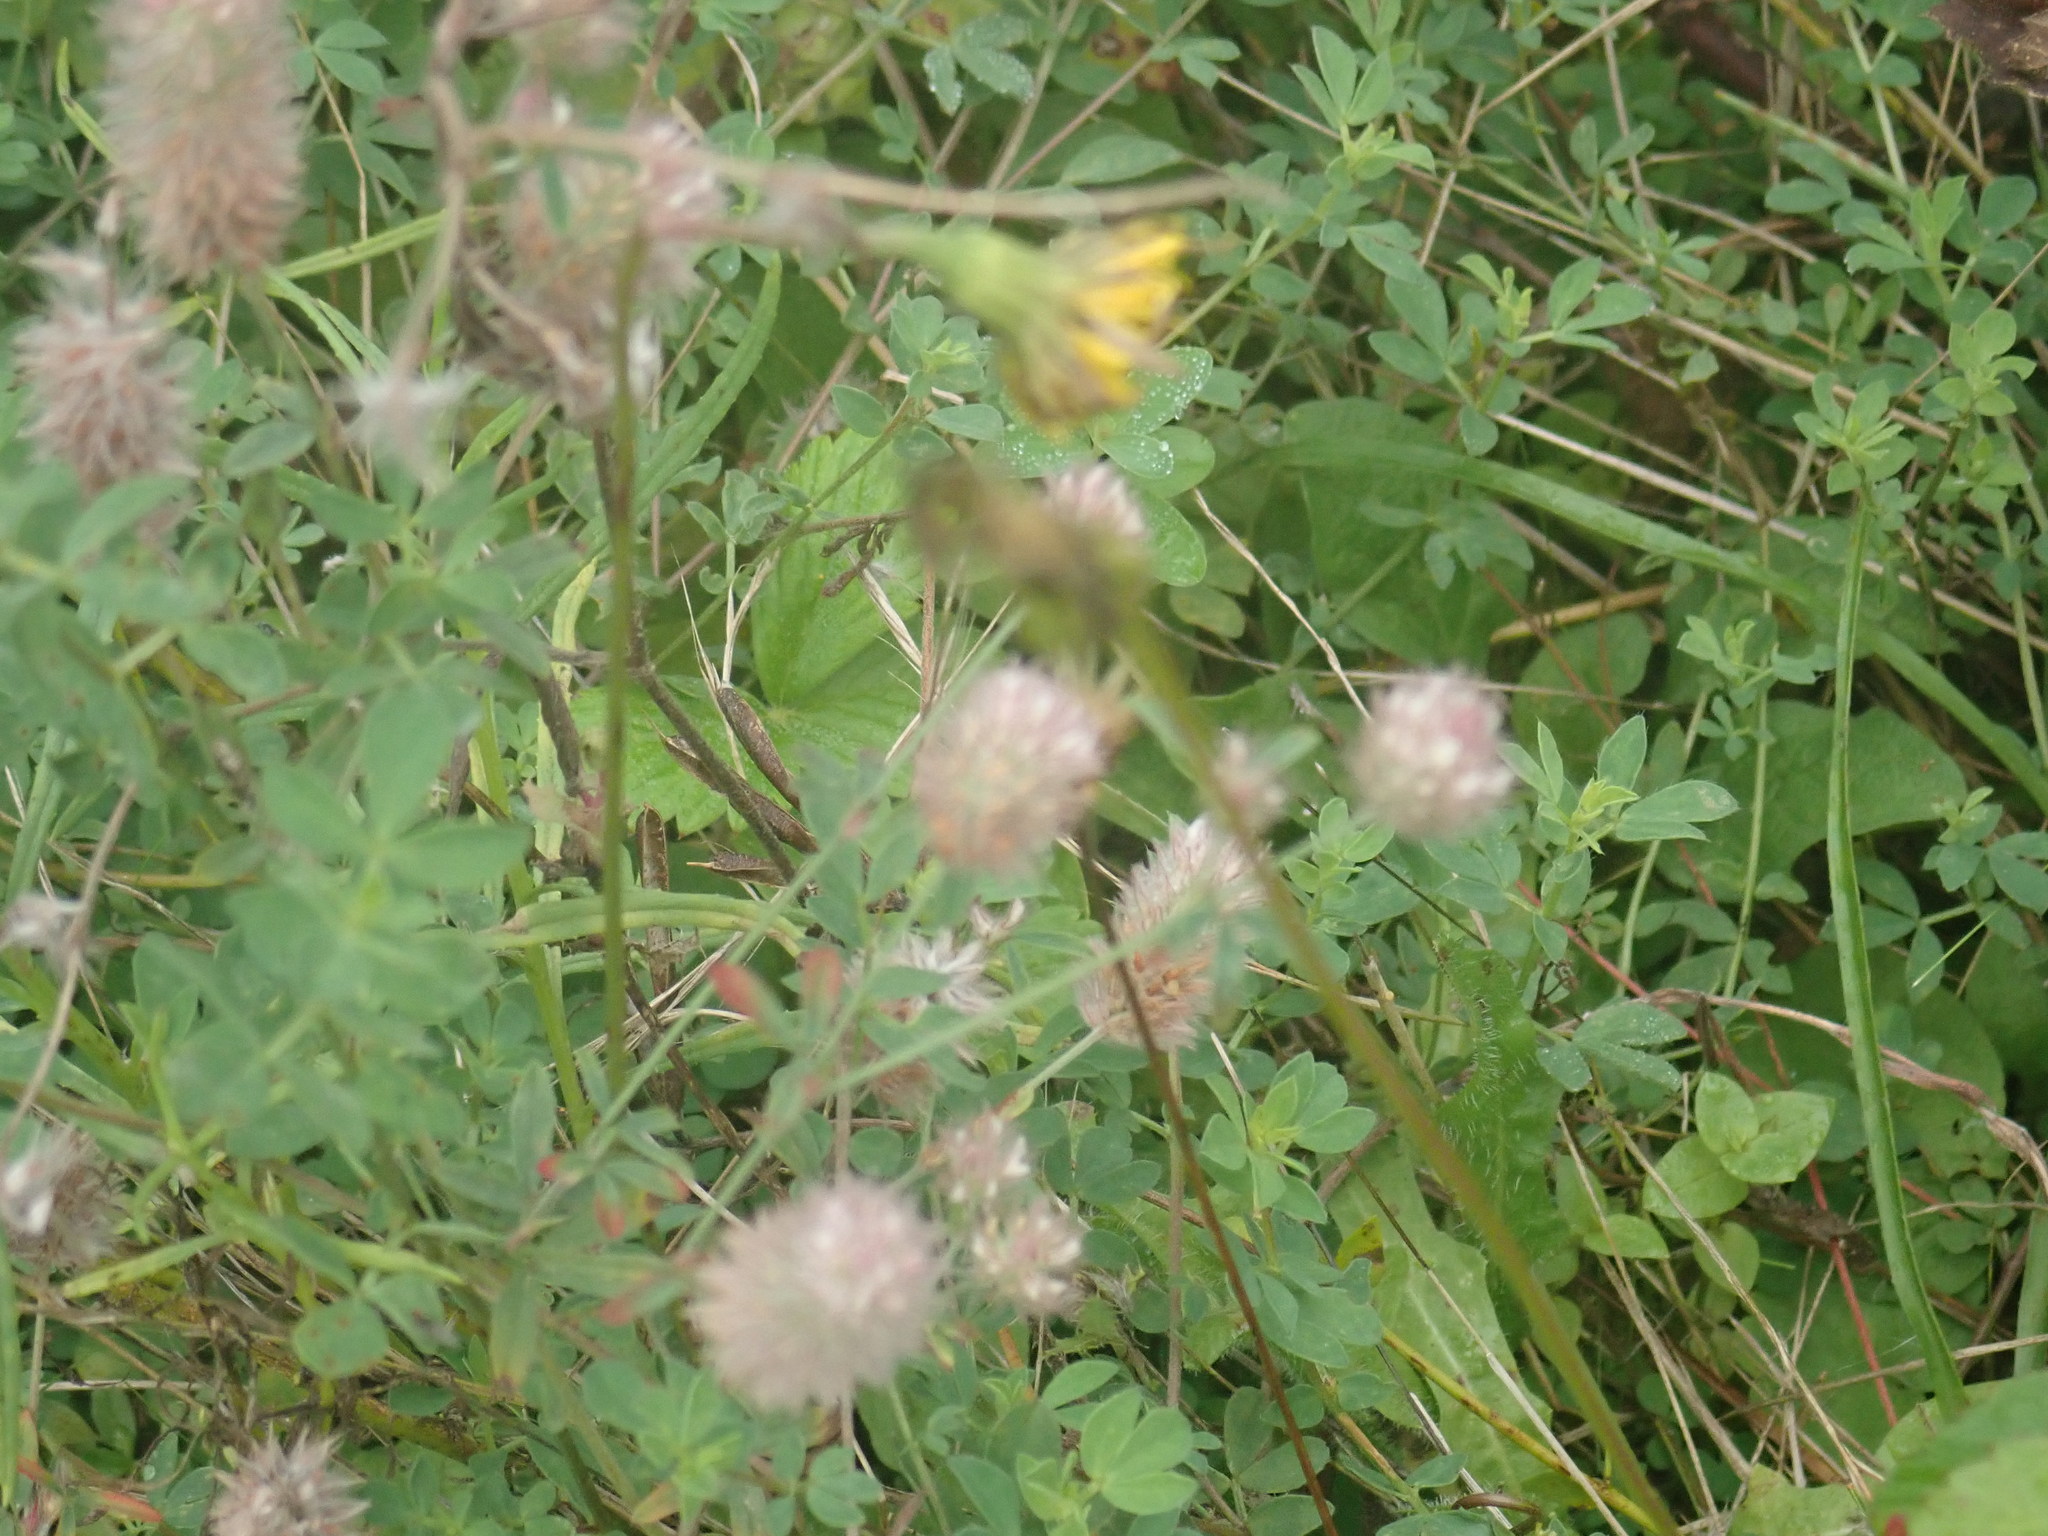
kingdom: Plantae
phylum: Tracheophyta
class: Magnoliopsida
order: Fabales
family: Fabaceae
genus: Trifolium
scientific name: Trifolium arvense
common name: Hare's-foot clover
